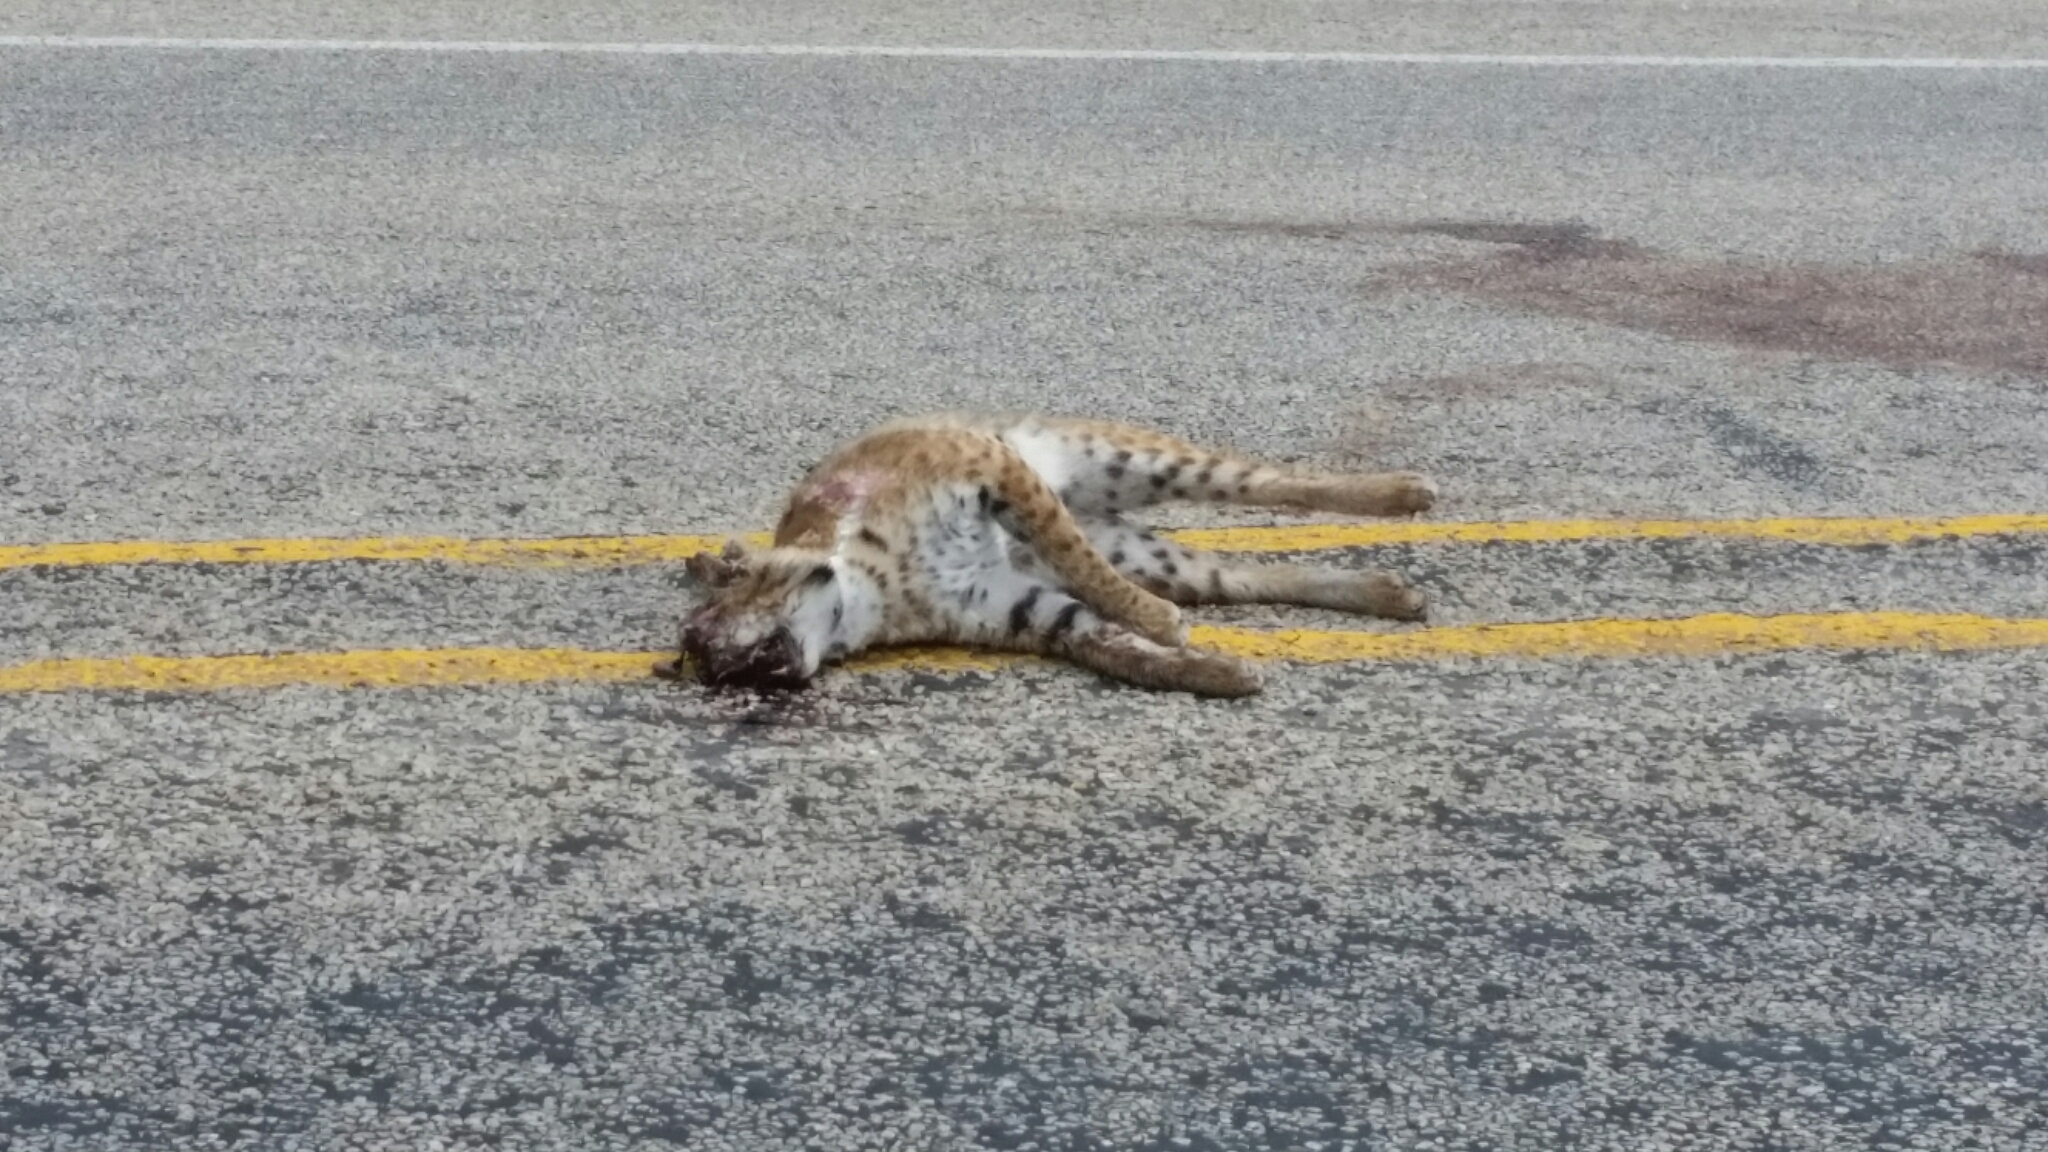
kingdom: Animalia
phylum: Chordata
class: Mammalia
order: Carnivora
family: Felidae
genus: Lynx
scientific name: Lynx rufus
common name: Bobcat
